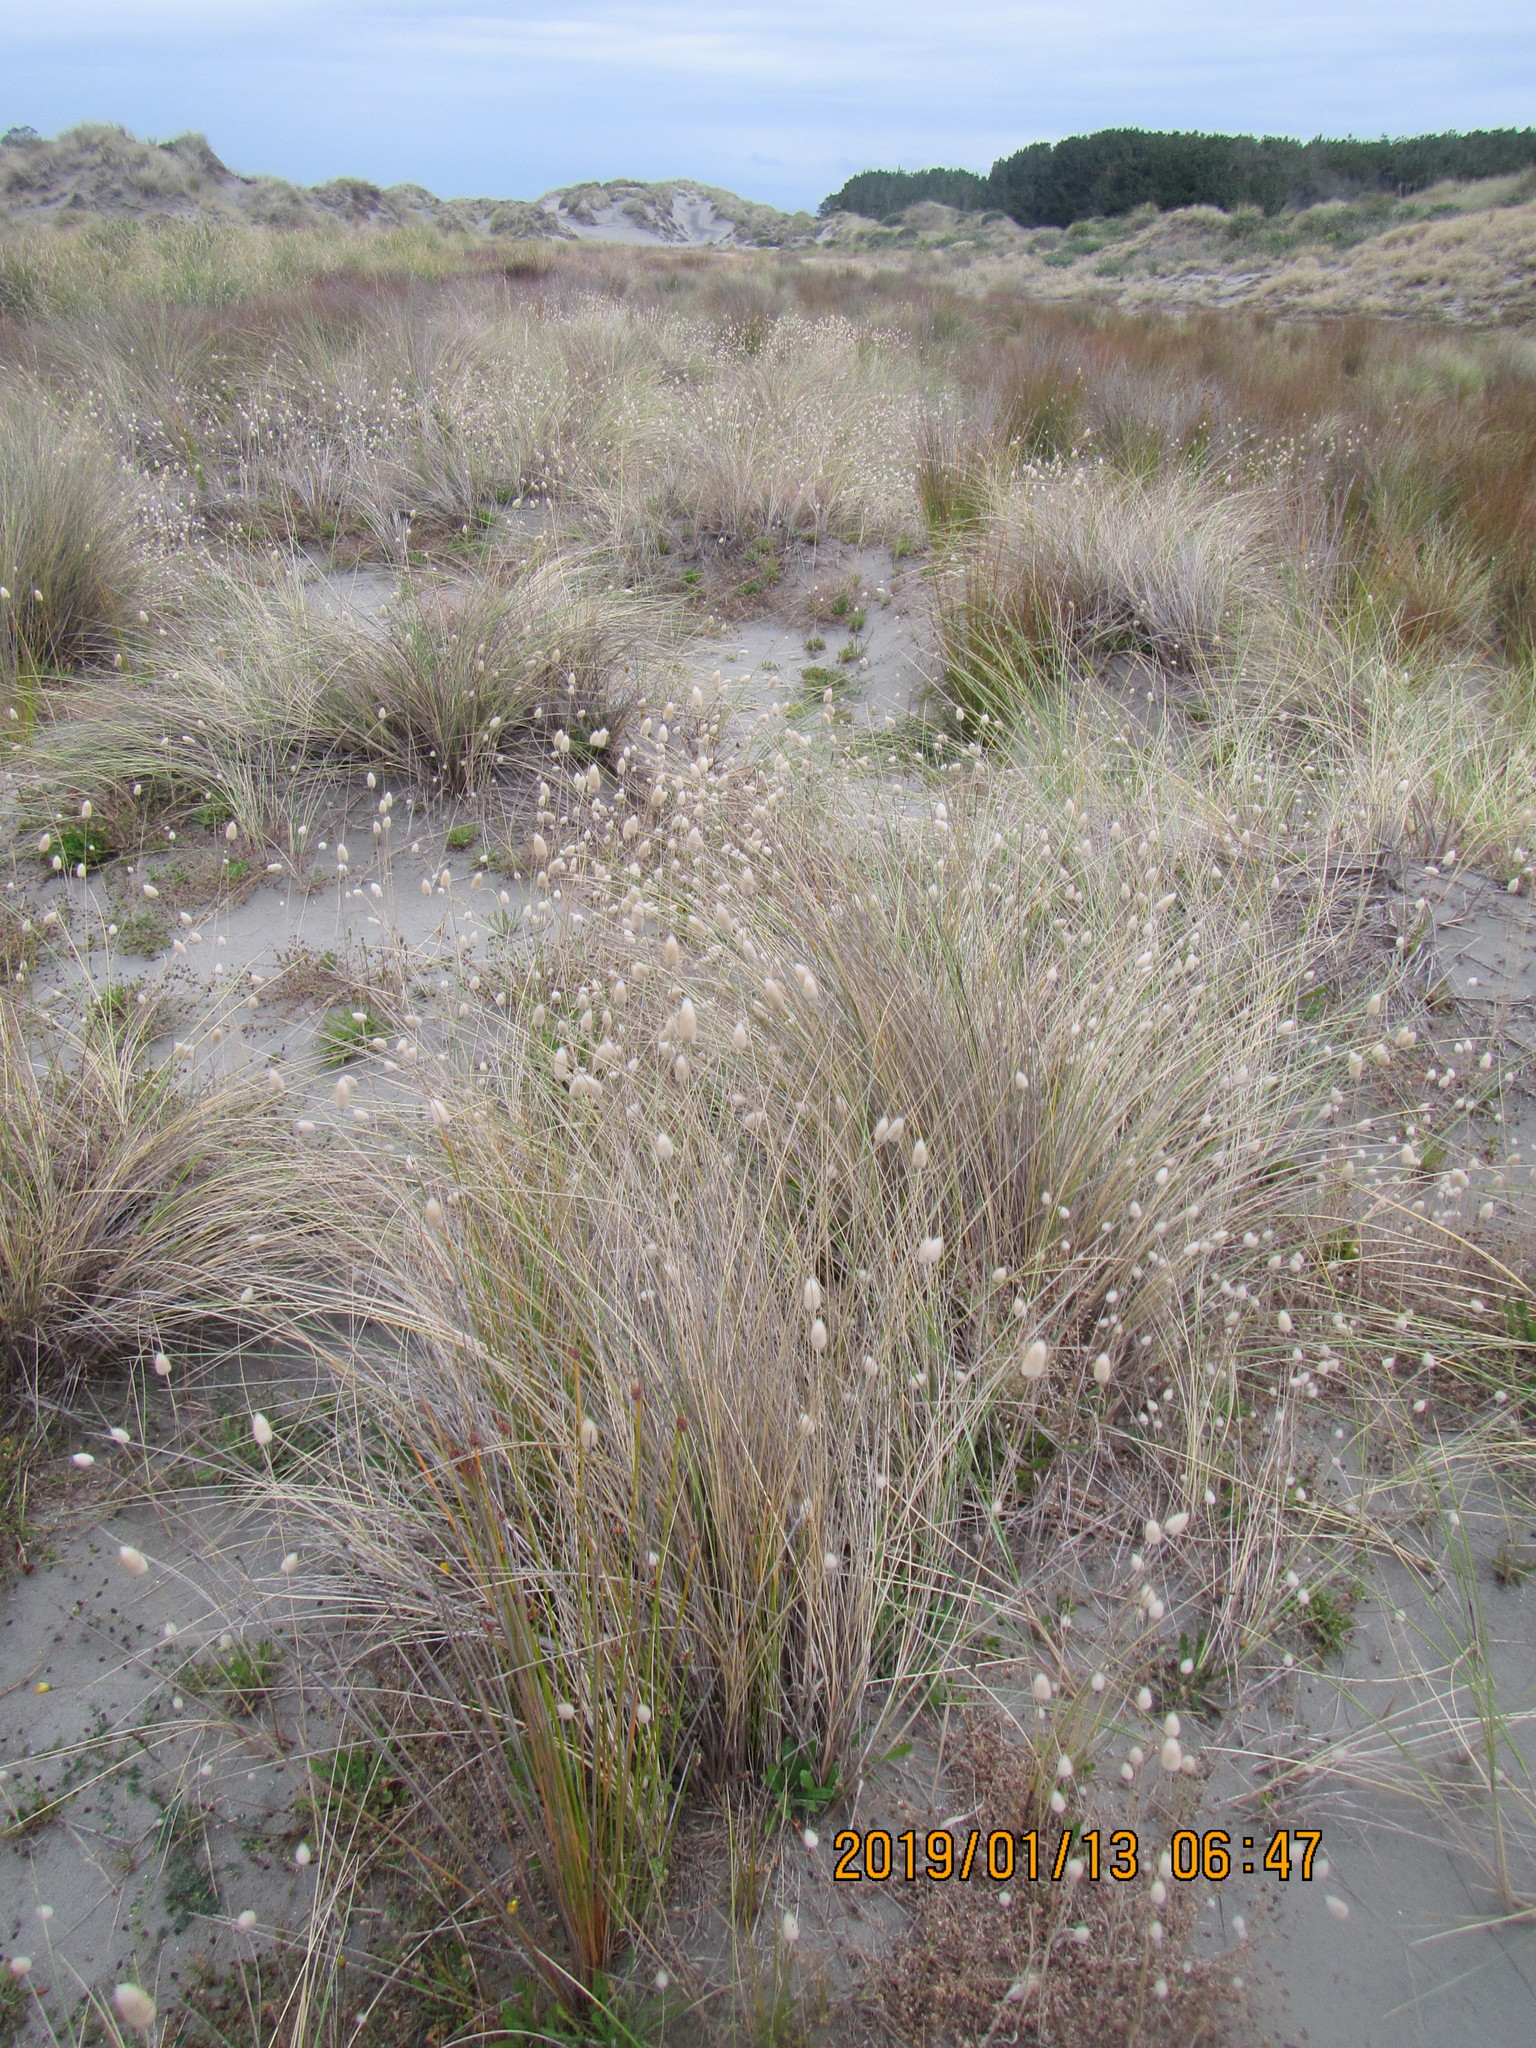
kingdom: Plantae
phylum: Tracheophyta
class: Liliopsida
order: Poales
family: Poaceae
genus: Lagurus
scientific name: Lagurus ovatus
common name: Hare's-tail
